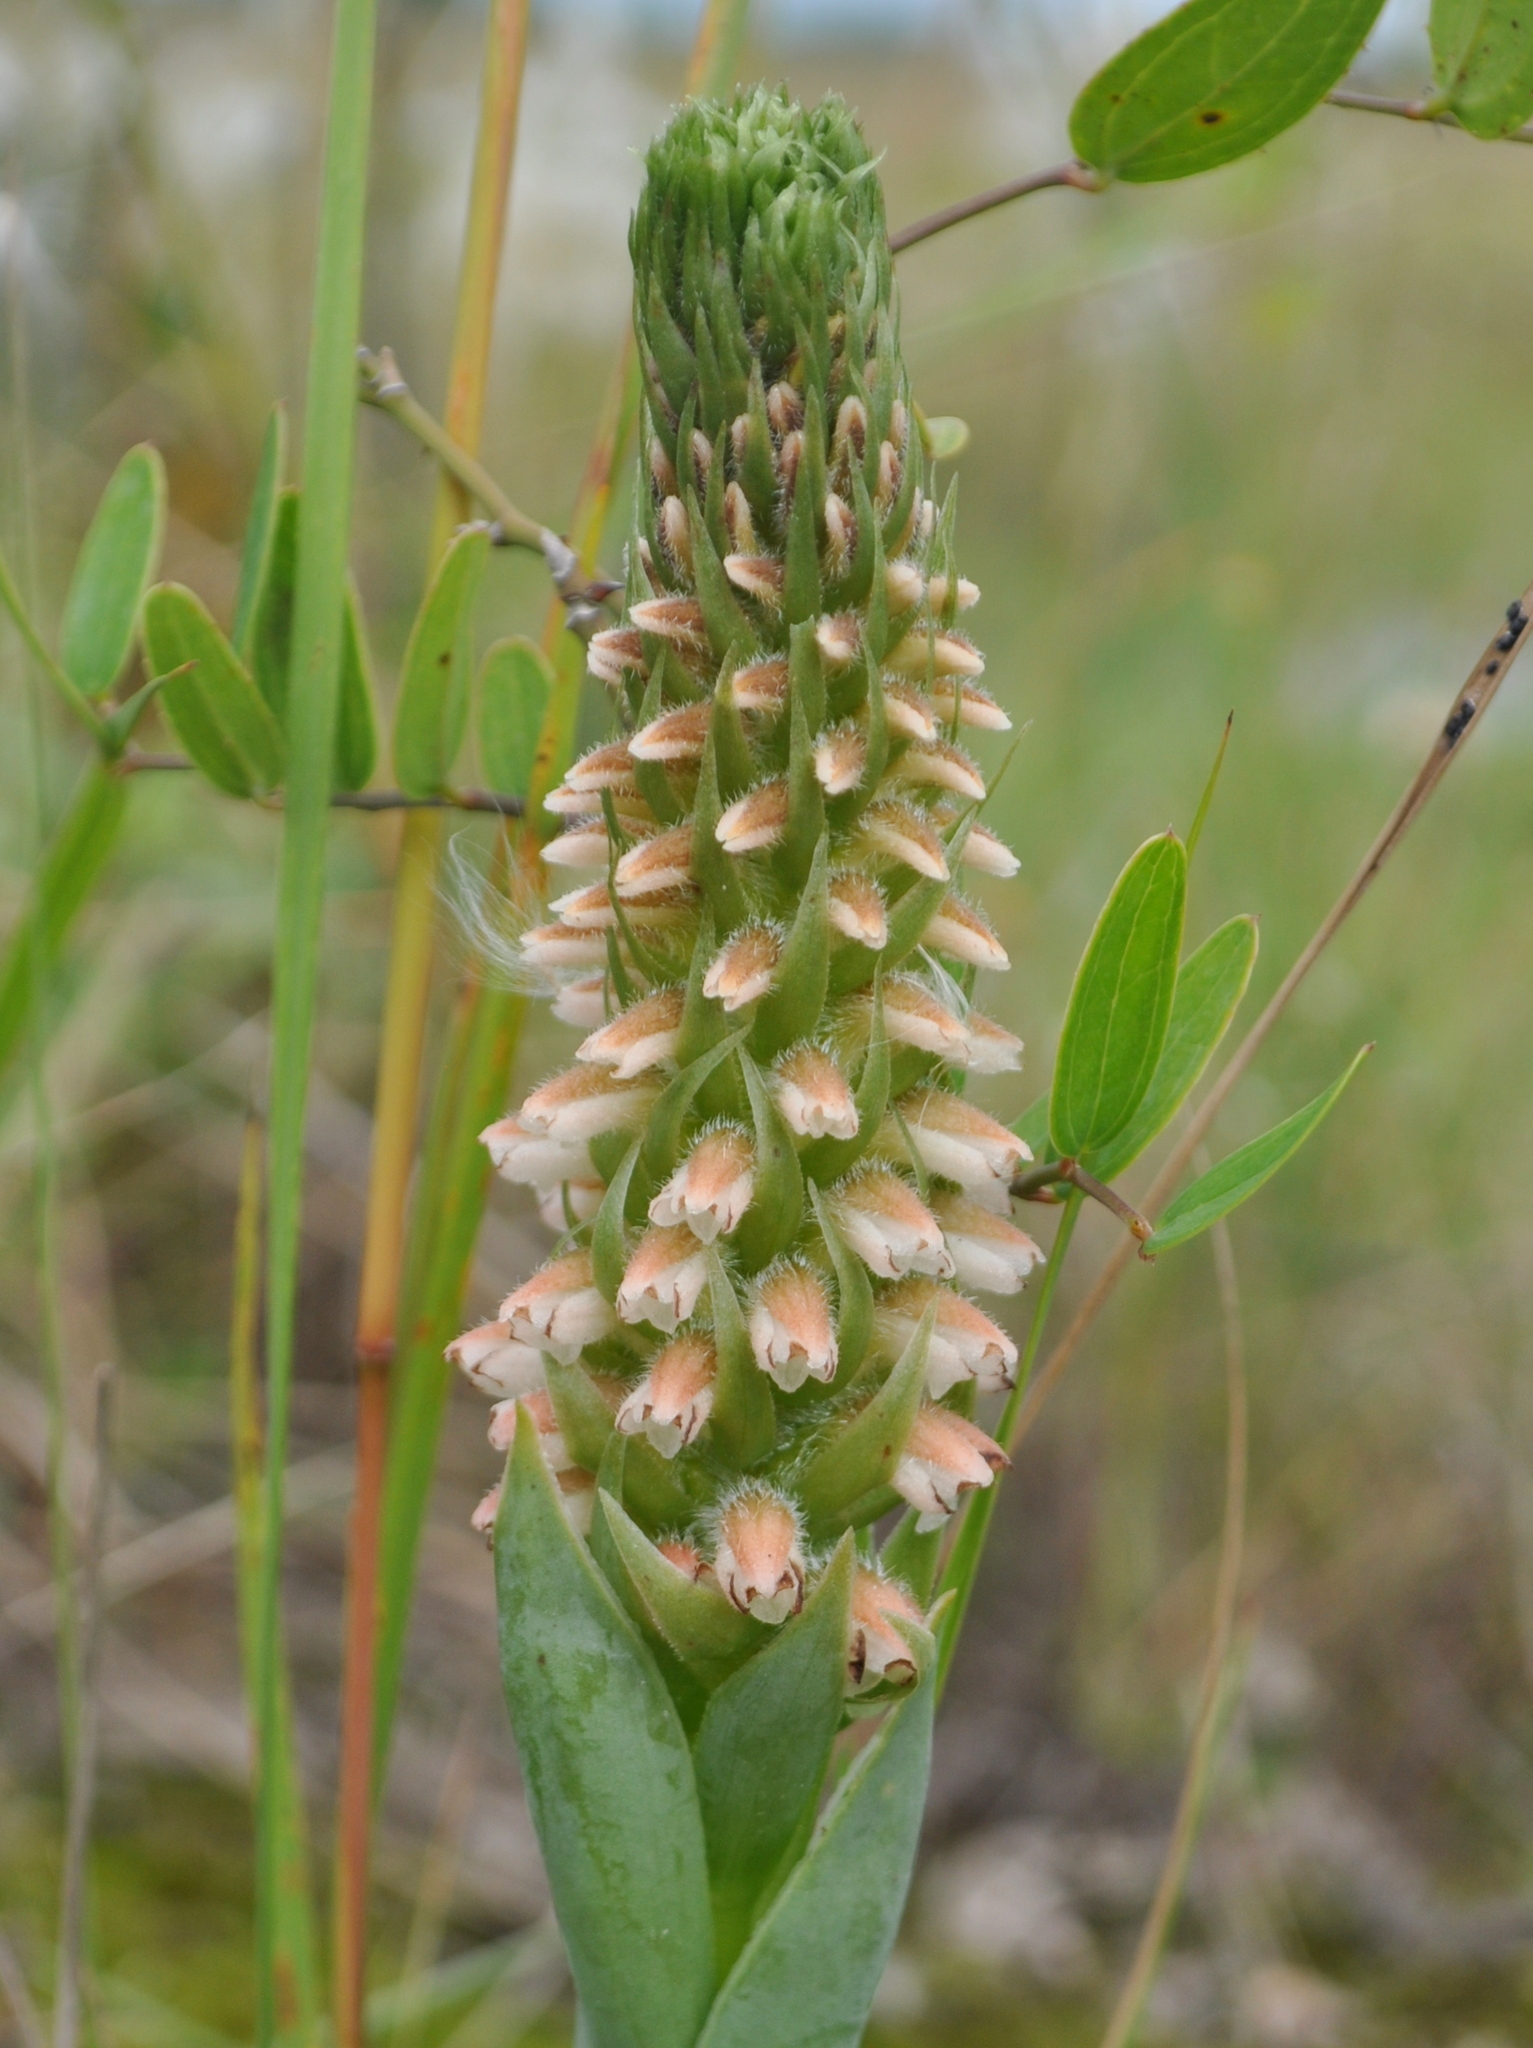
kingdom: Plantae
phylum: Tracheophyta
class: Liliopsida
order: Asparagales
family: Orchidaceae
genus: Skeptrostachys
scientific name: Skeptrostachys balanophorostachya
